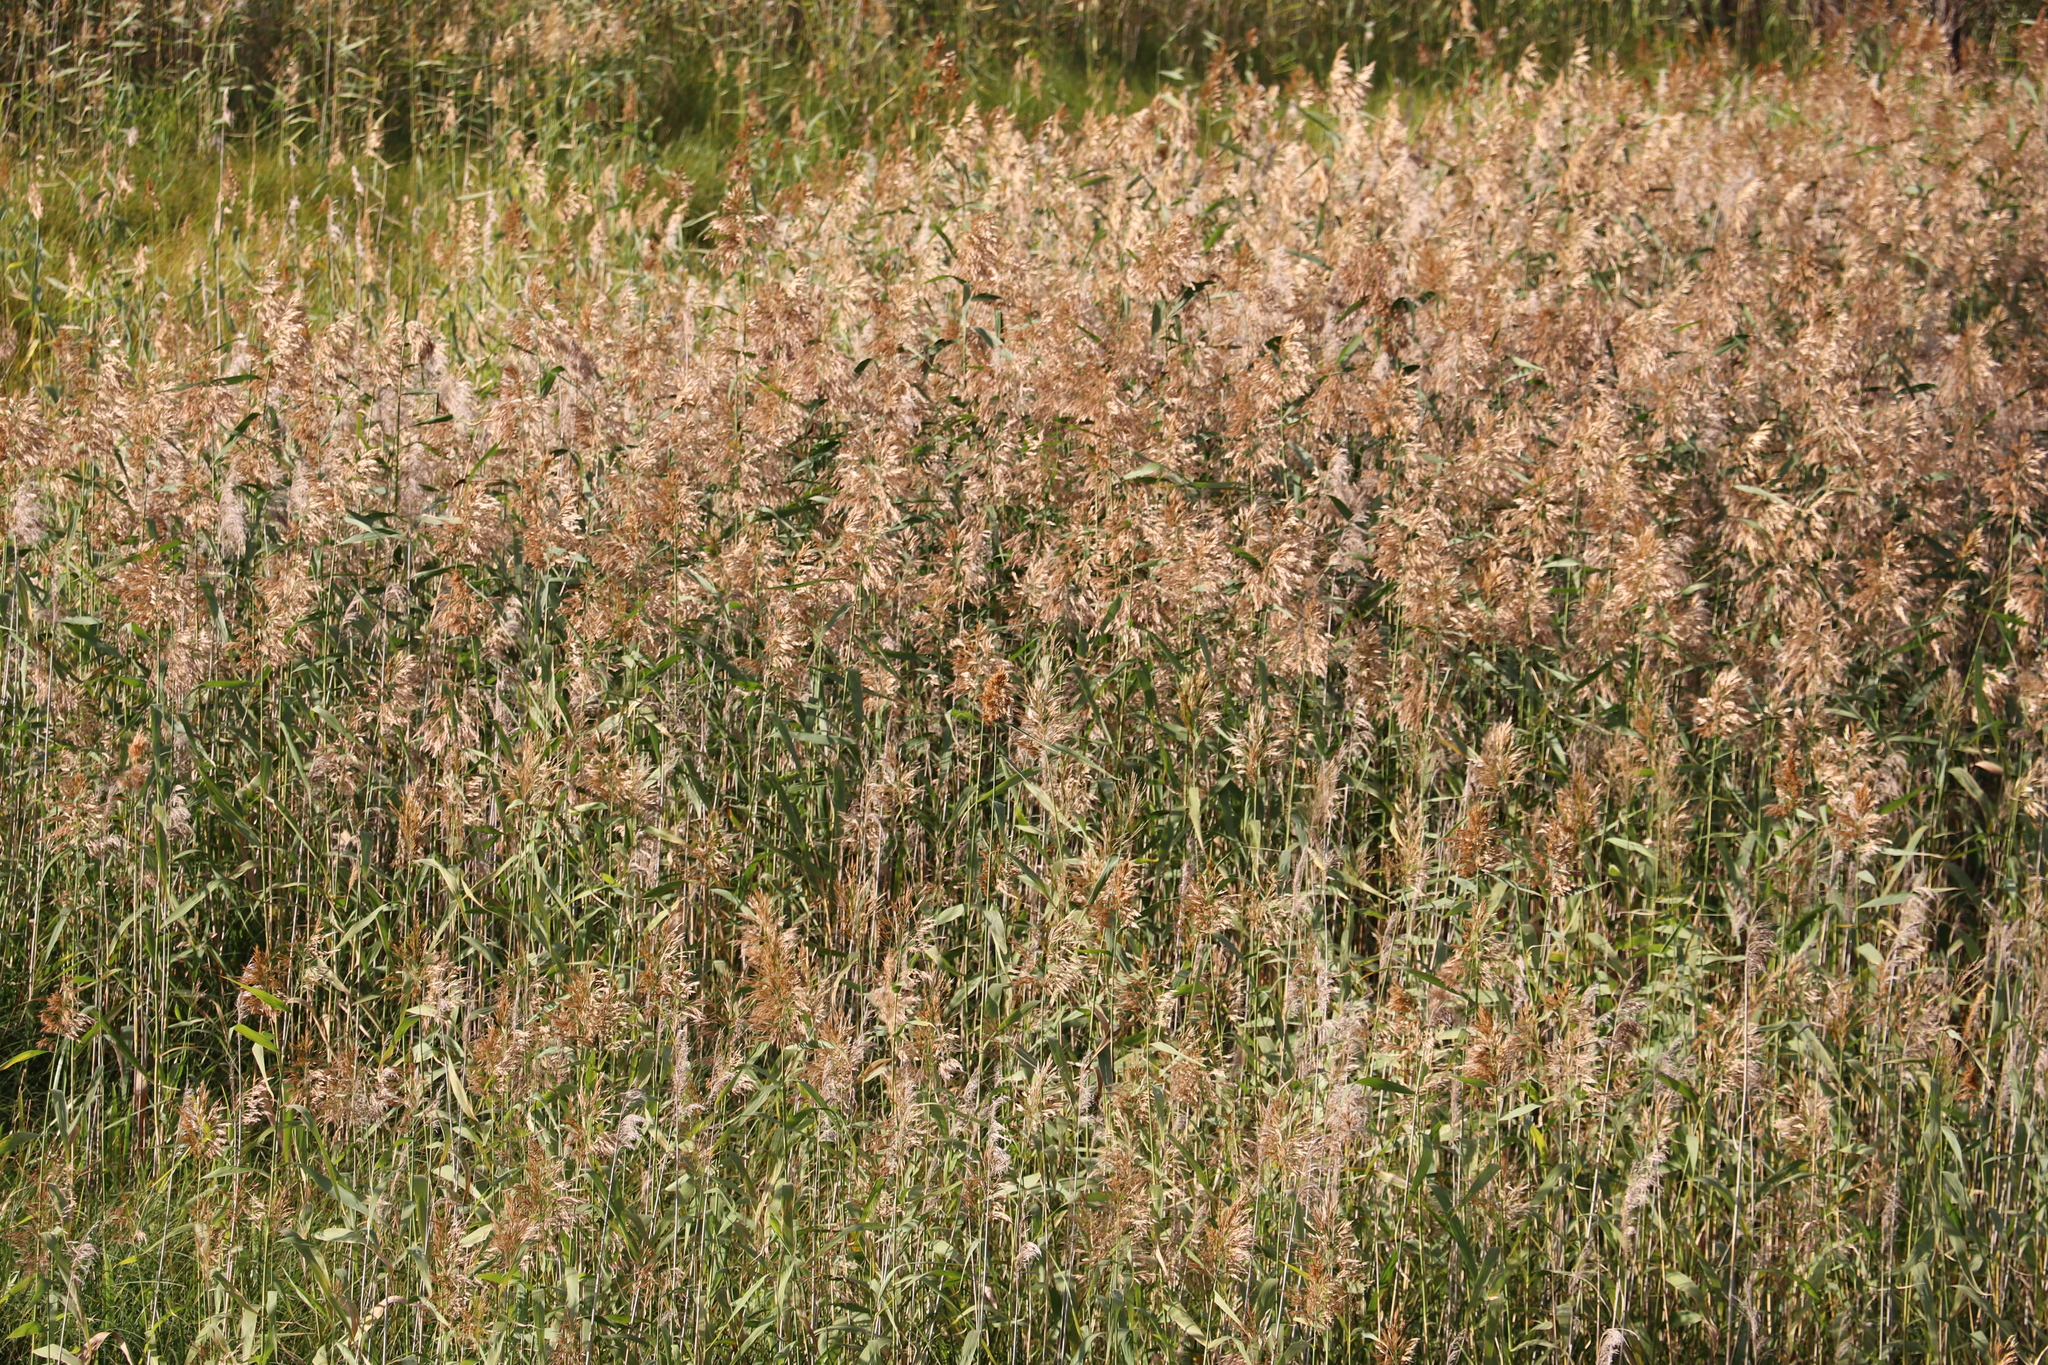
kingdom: Plantae
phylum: Tracheophyta
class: Liliopsida
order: Poales
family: Poaceae
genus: Phragmites
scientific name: Phragmites australis
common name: Common reed
